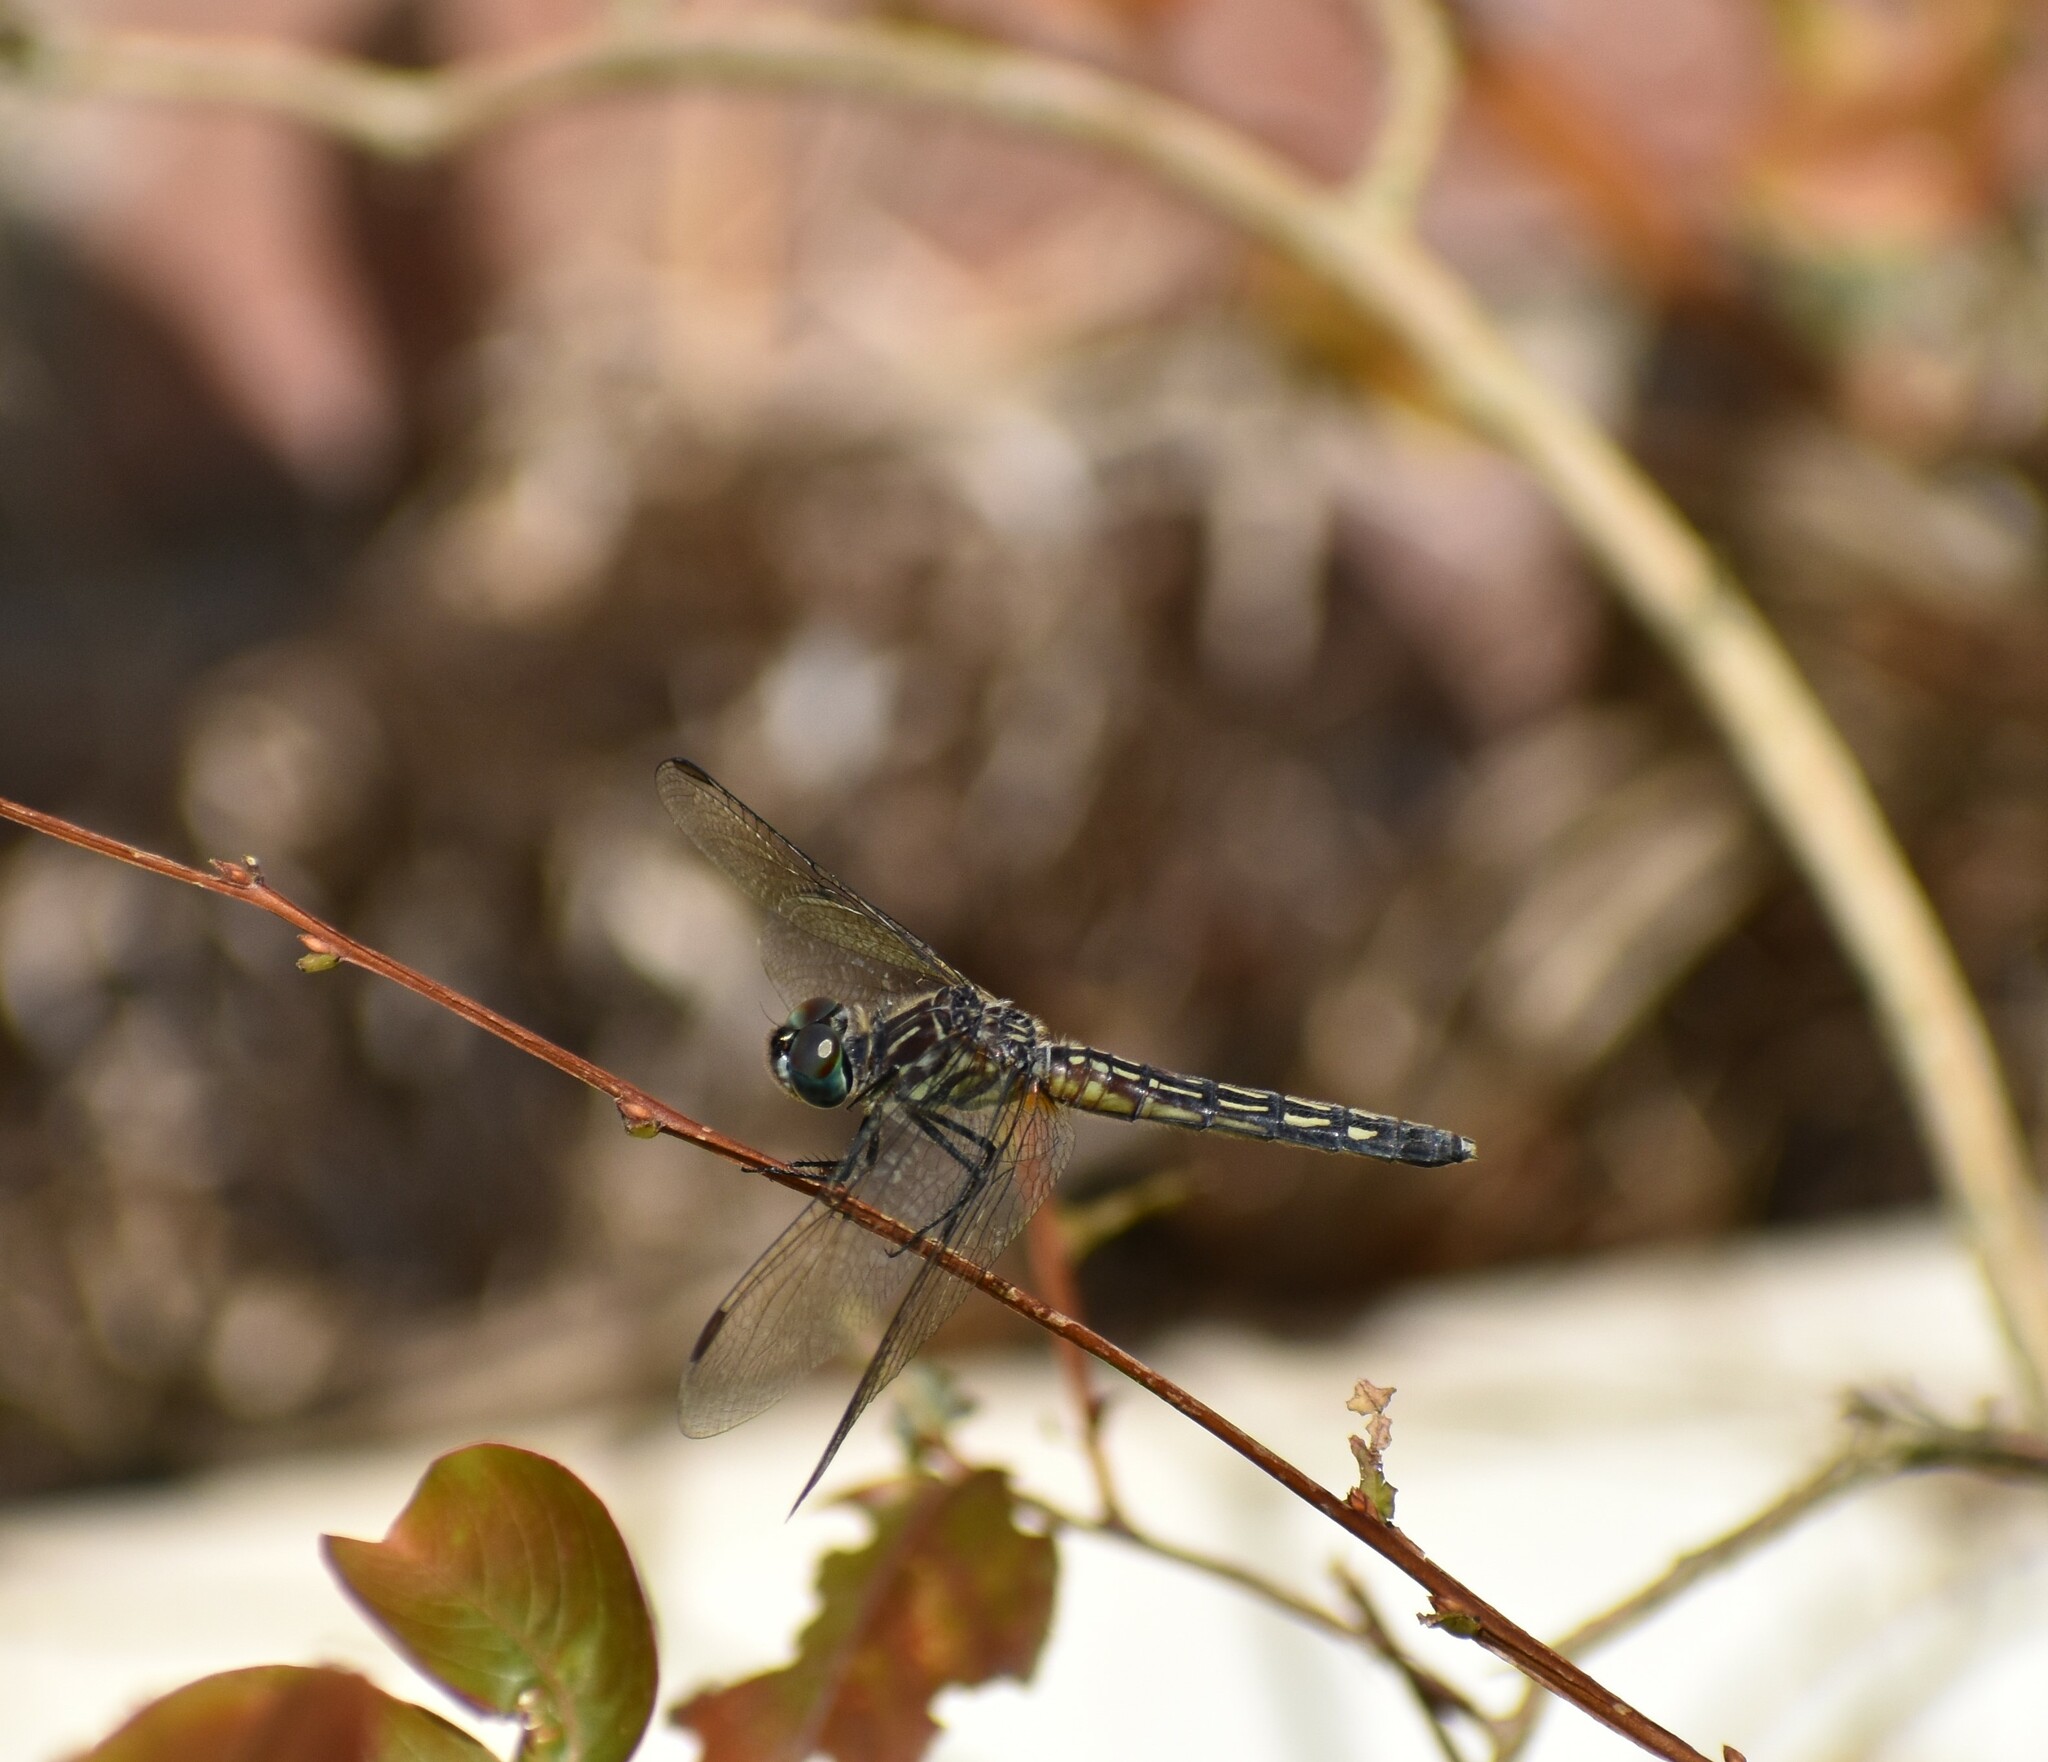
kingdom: Animalia
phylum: Arthropoda
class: Insecta
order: Odonata
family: Libellulidae
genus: Pachydiplax
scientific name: Pachydiplax longipennis
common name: Blue dasher
